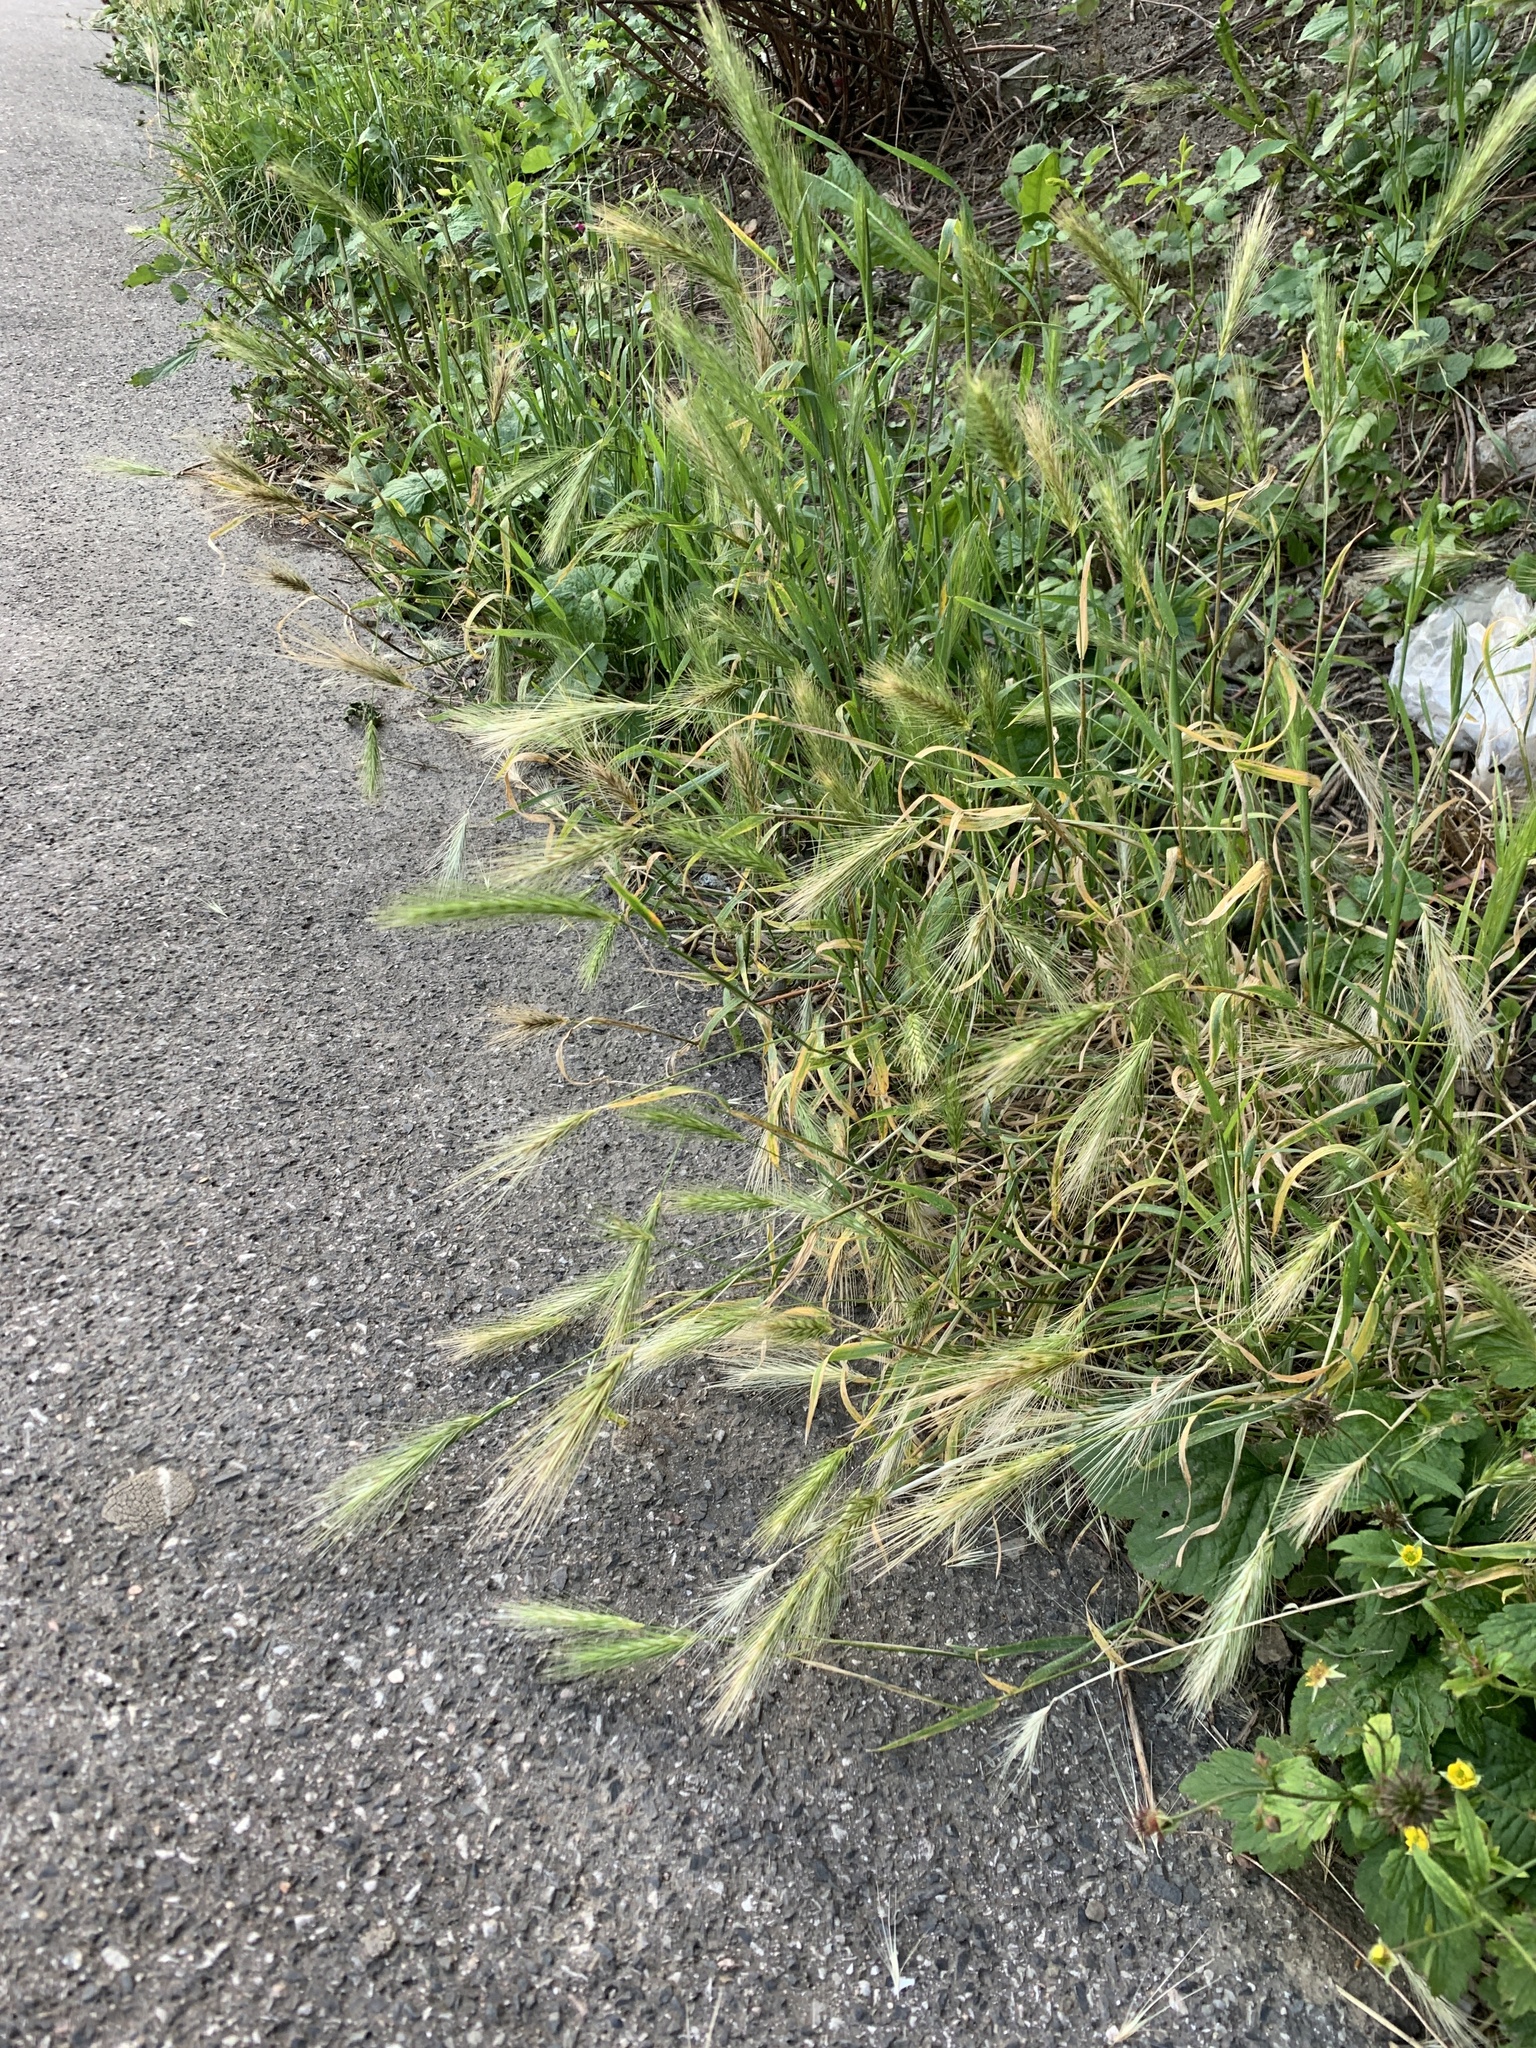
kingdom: Plantae
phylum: Tracheophyta
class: Liliopsida
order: Poales
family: Poaceae
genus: Hordeum
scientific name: Hordeum murinum
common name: Wall barley
